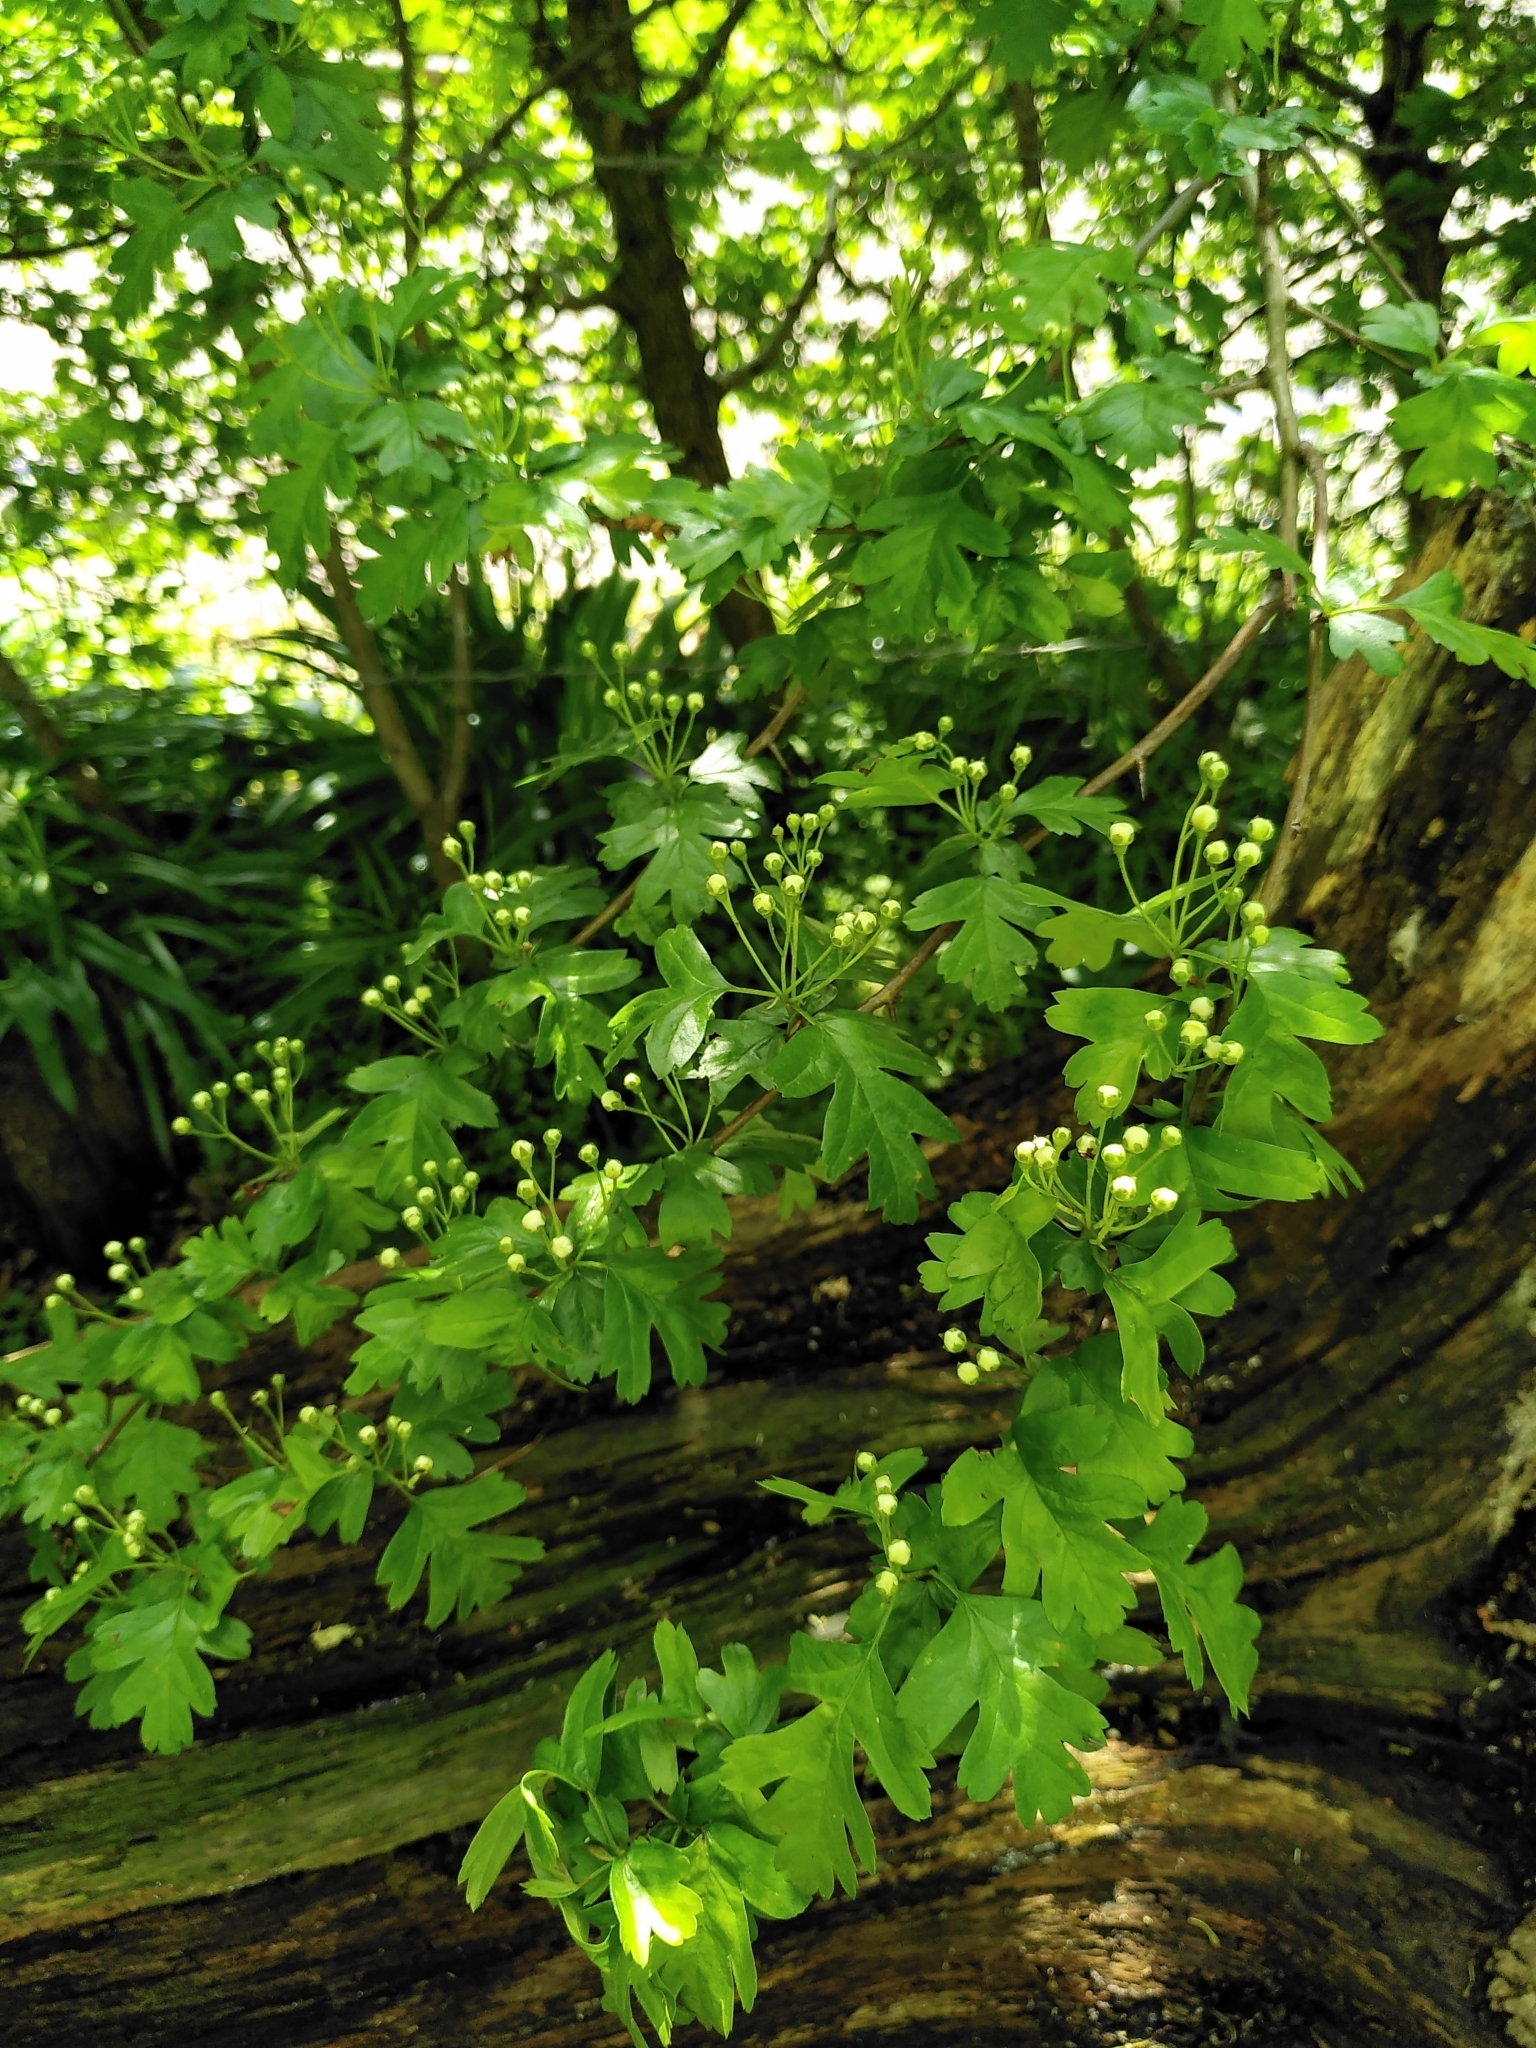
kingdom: Plantae
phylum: Tracheophyta
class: Magnoliopsida
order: Rosales
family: Rosaceae
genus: Crataegus
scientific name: Crataegus monogyna
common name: Hawthorn
